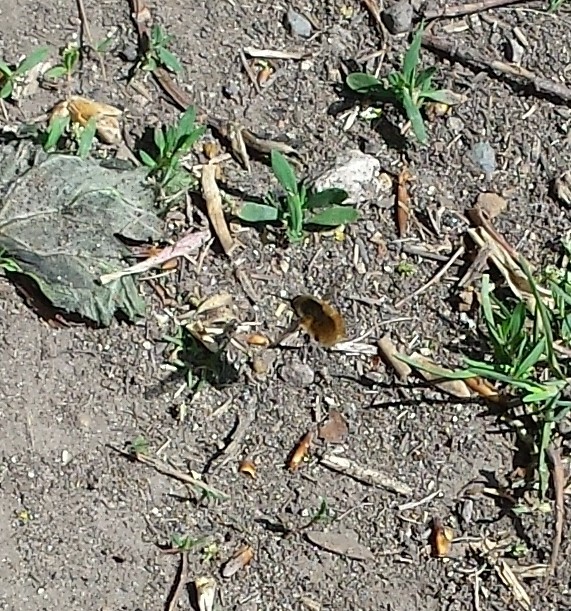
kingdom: Animalia
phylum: Arthropoda
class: Insecta
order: Diptera
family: Bombyliidae
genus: Bombylius
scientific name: Bombylius major
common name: Bee fly
